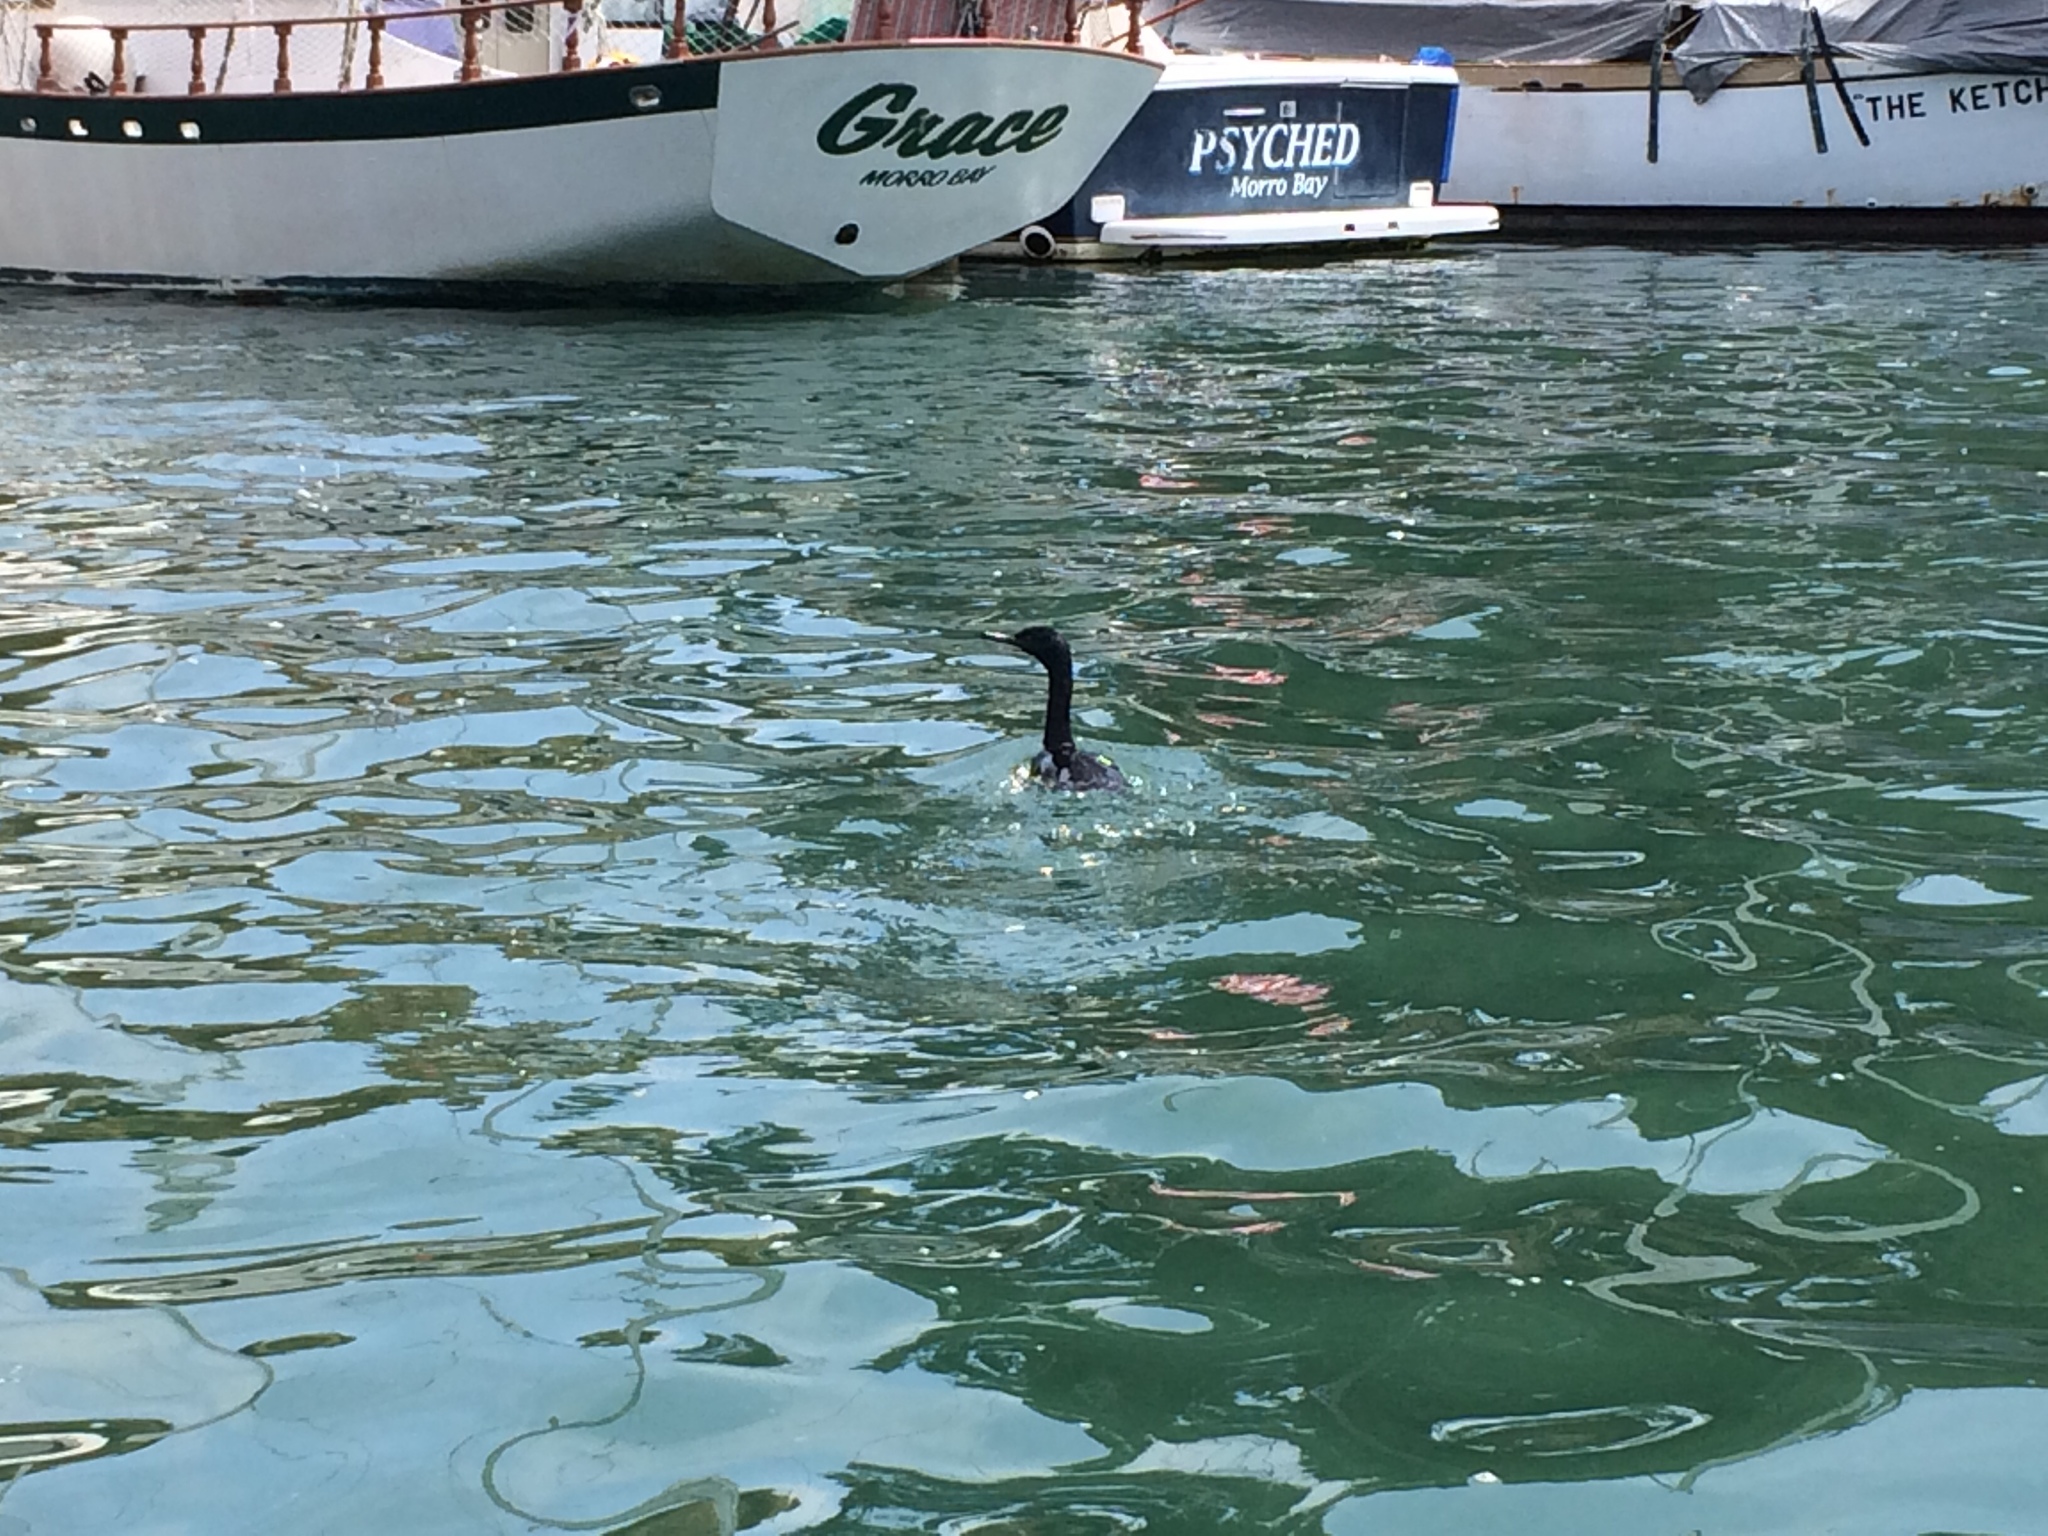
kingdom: Animalia
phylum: Chordata
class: Aves
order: Suliformes
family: Phalacrocoracidae
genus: Phalacrocorax
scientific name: Phalacrocorax pelagicus
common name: Pelagic cormorant
